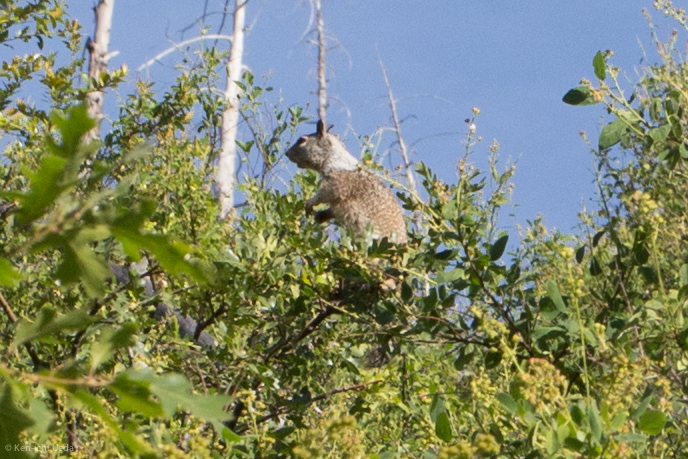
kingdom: Animalia
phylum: Chordata
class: Mammalia
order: Rodentia
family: Sciuridae
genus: Otospermophilus
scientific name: Otospermophilus beecheyi
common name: California ground squirrel
